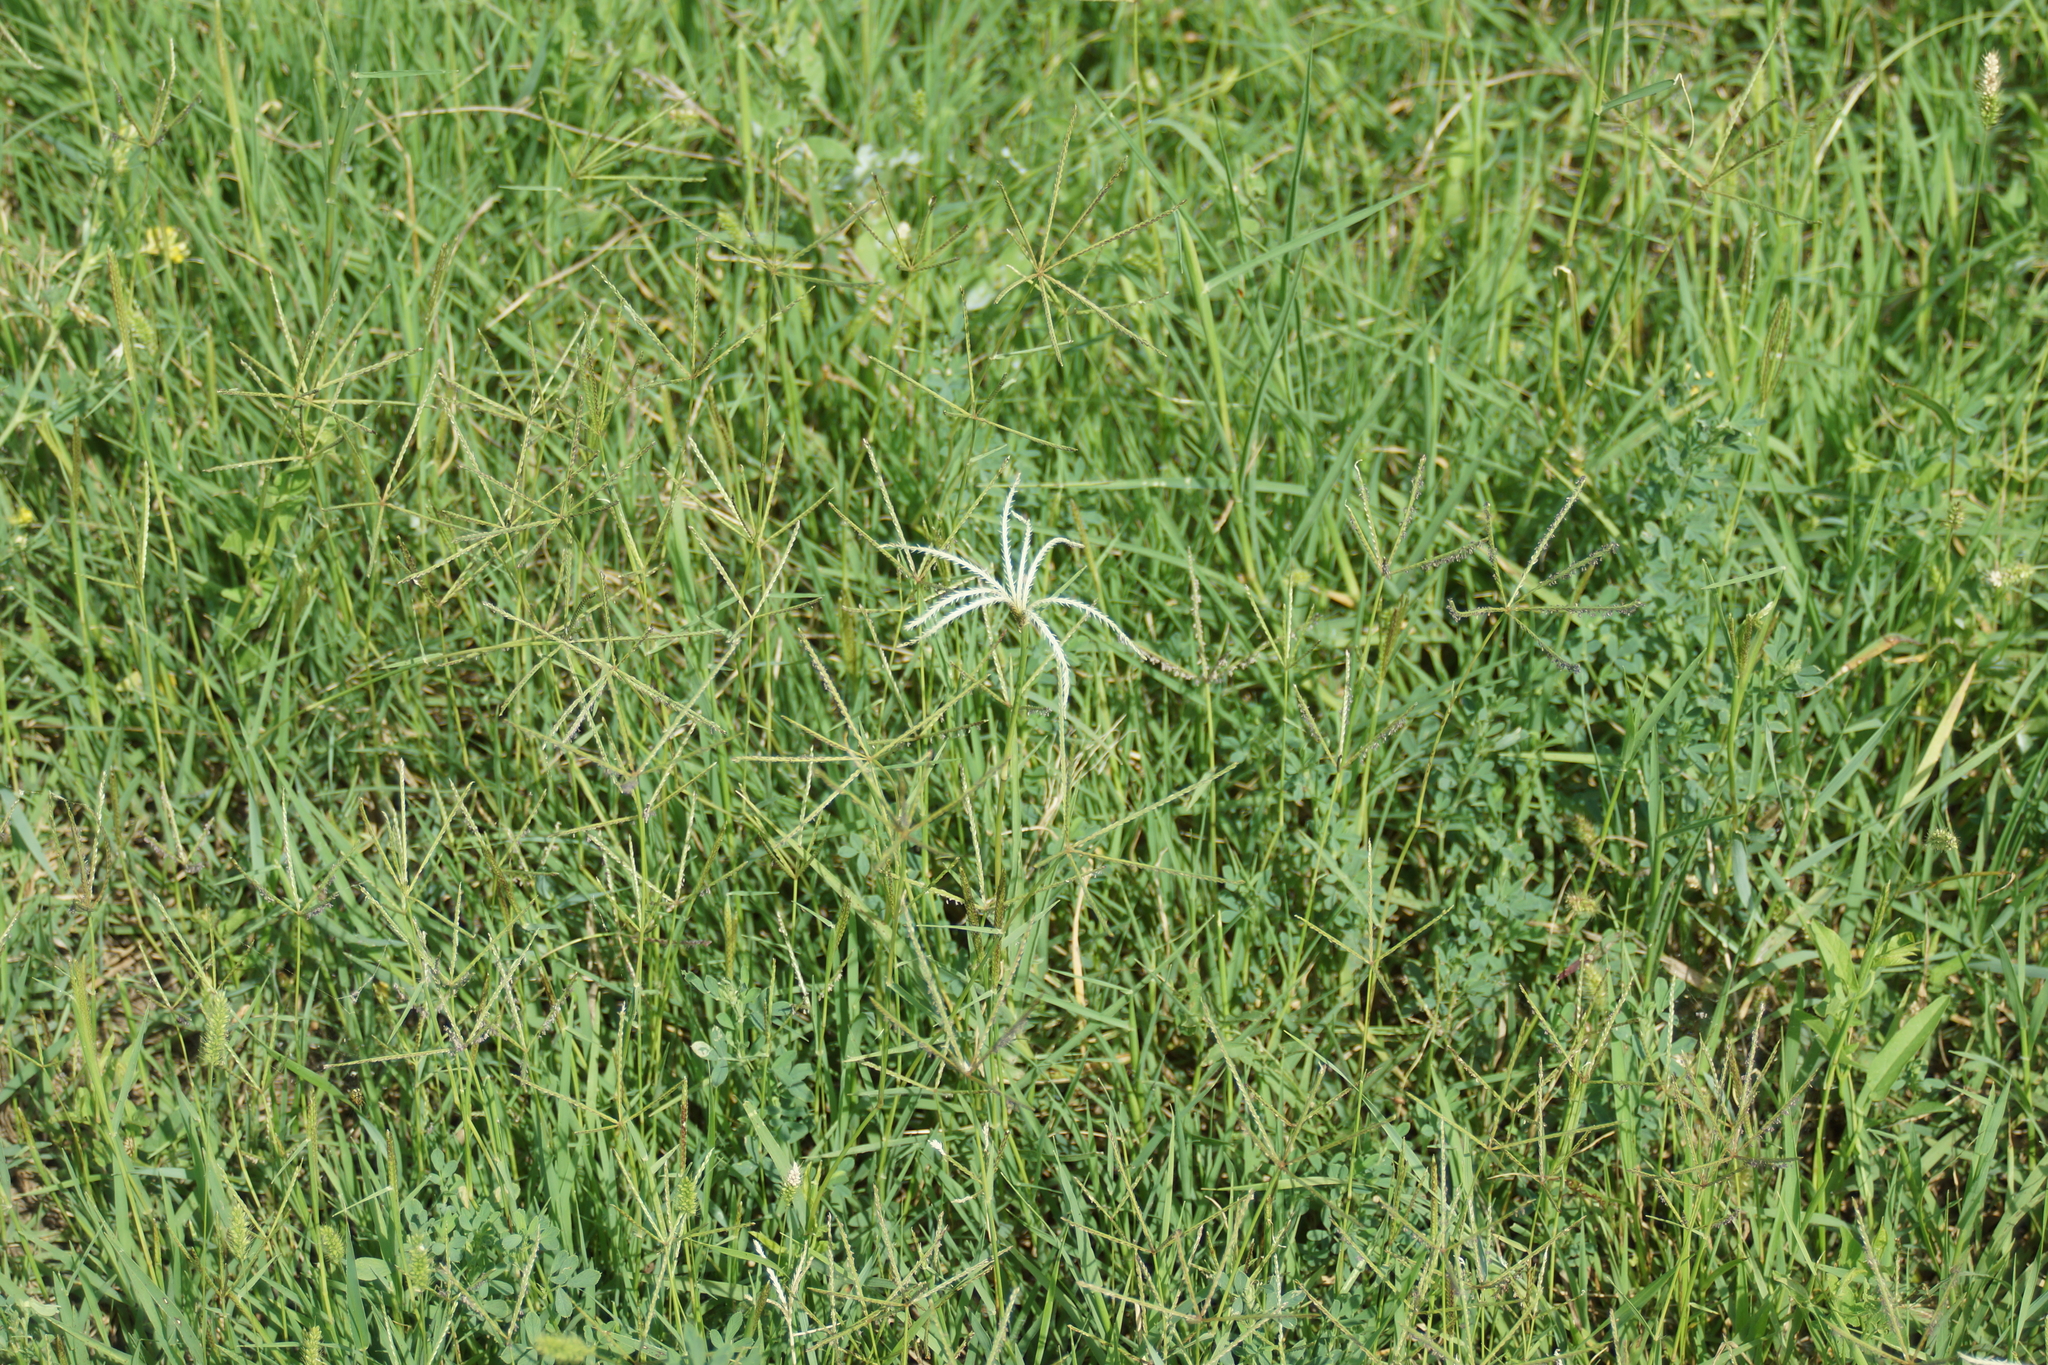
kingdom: Plantae
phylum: Tracheophyta
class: Liliopsida
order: Poales
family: Poaceae
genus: Cynodon
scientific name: Cynodon dactylon
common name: Bermuda grass
